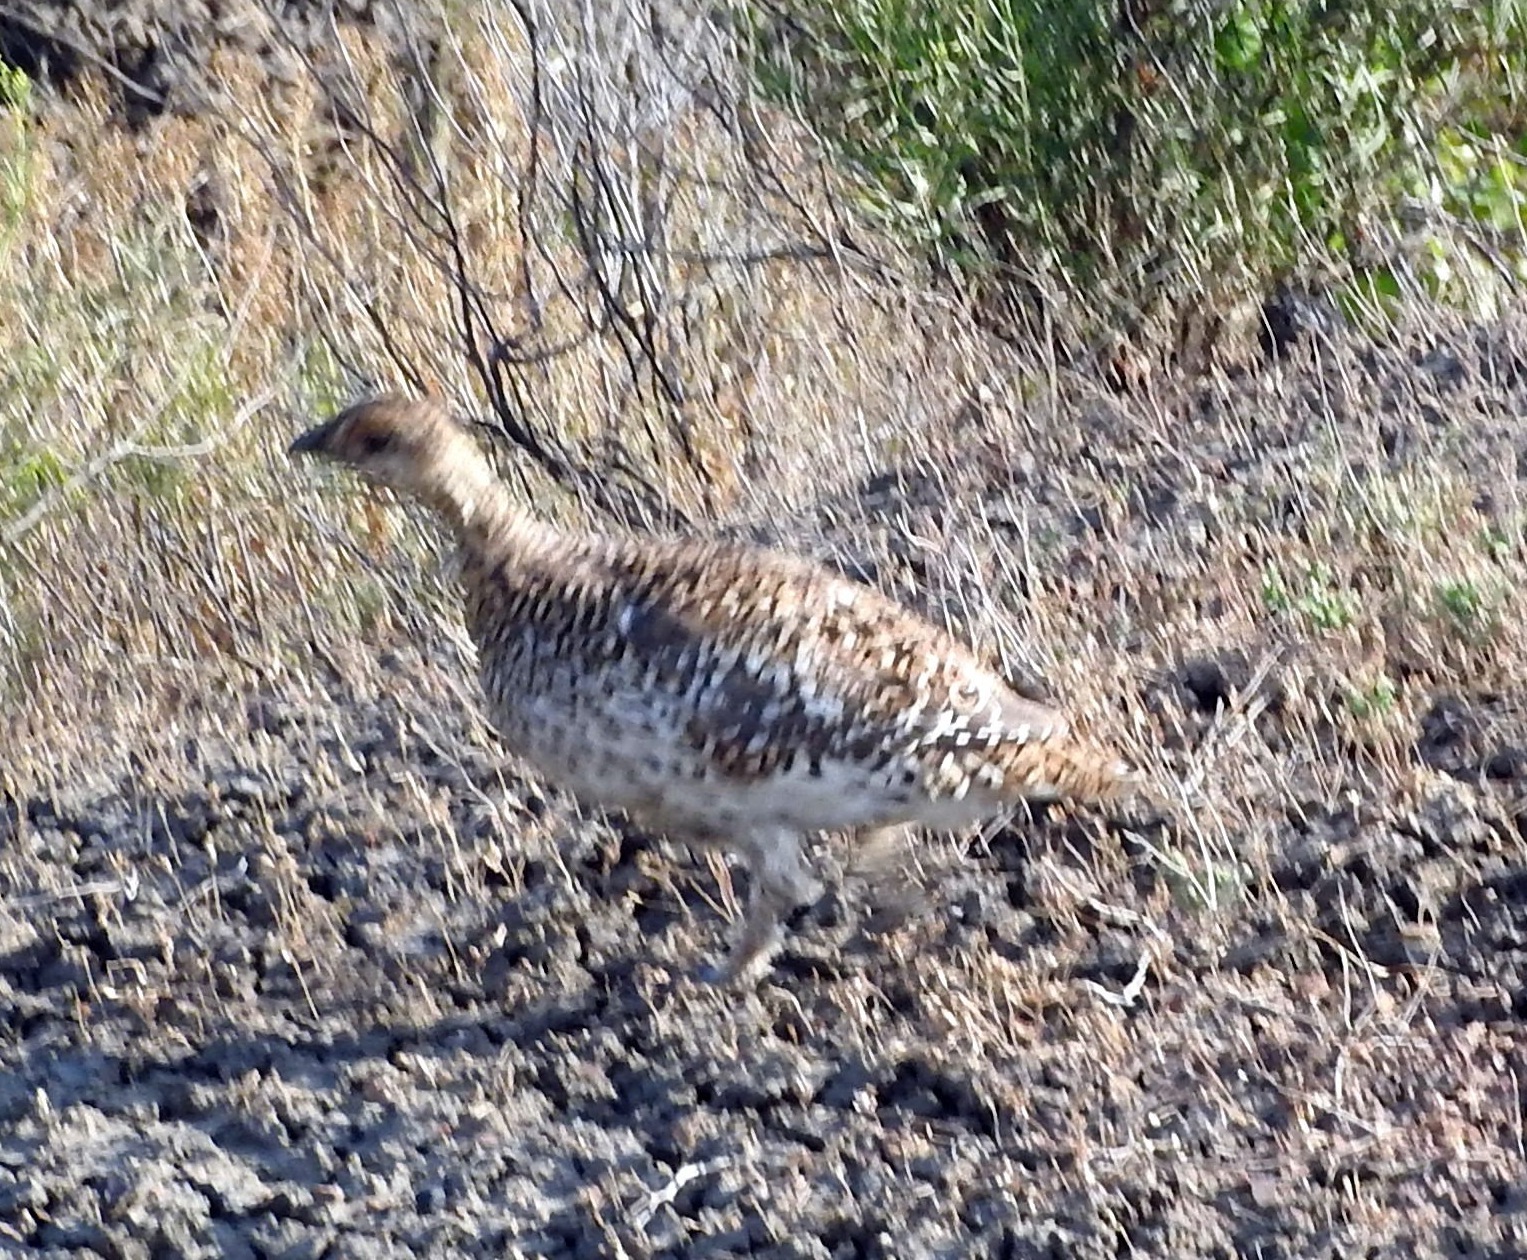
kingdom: Animalia
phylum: Chordata
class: Aves
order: Galliformes
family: Phasianidae
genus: Tympanuchus
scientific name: Tympanuchus phasianellus
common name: Sharp-tailed grouse
